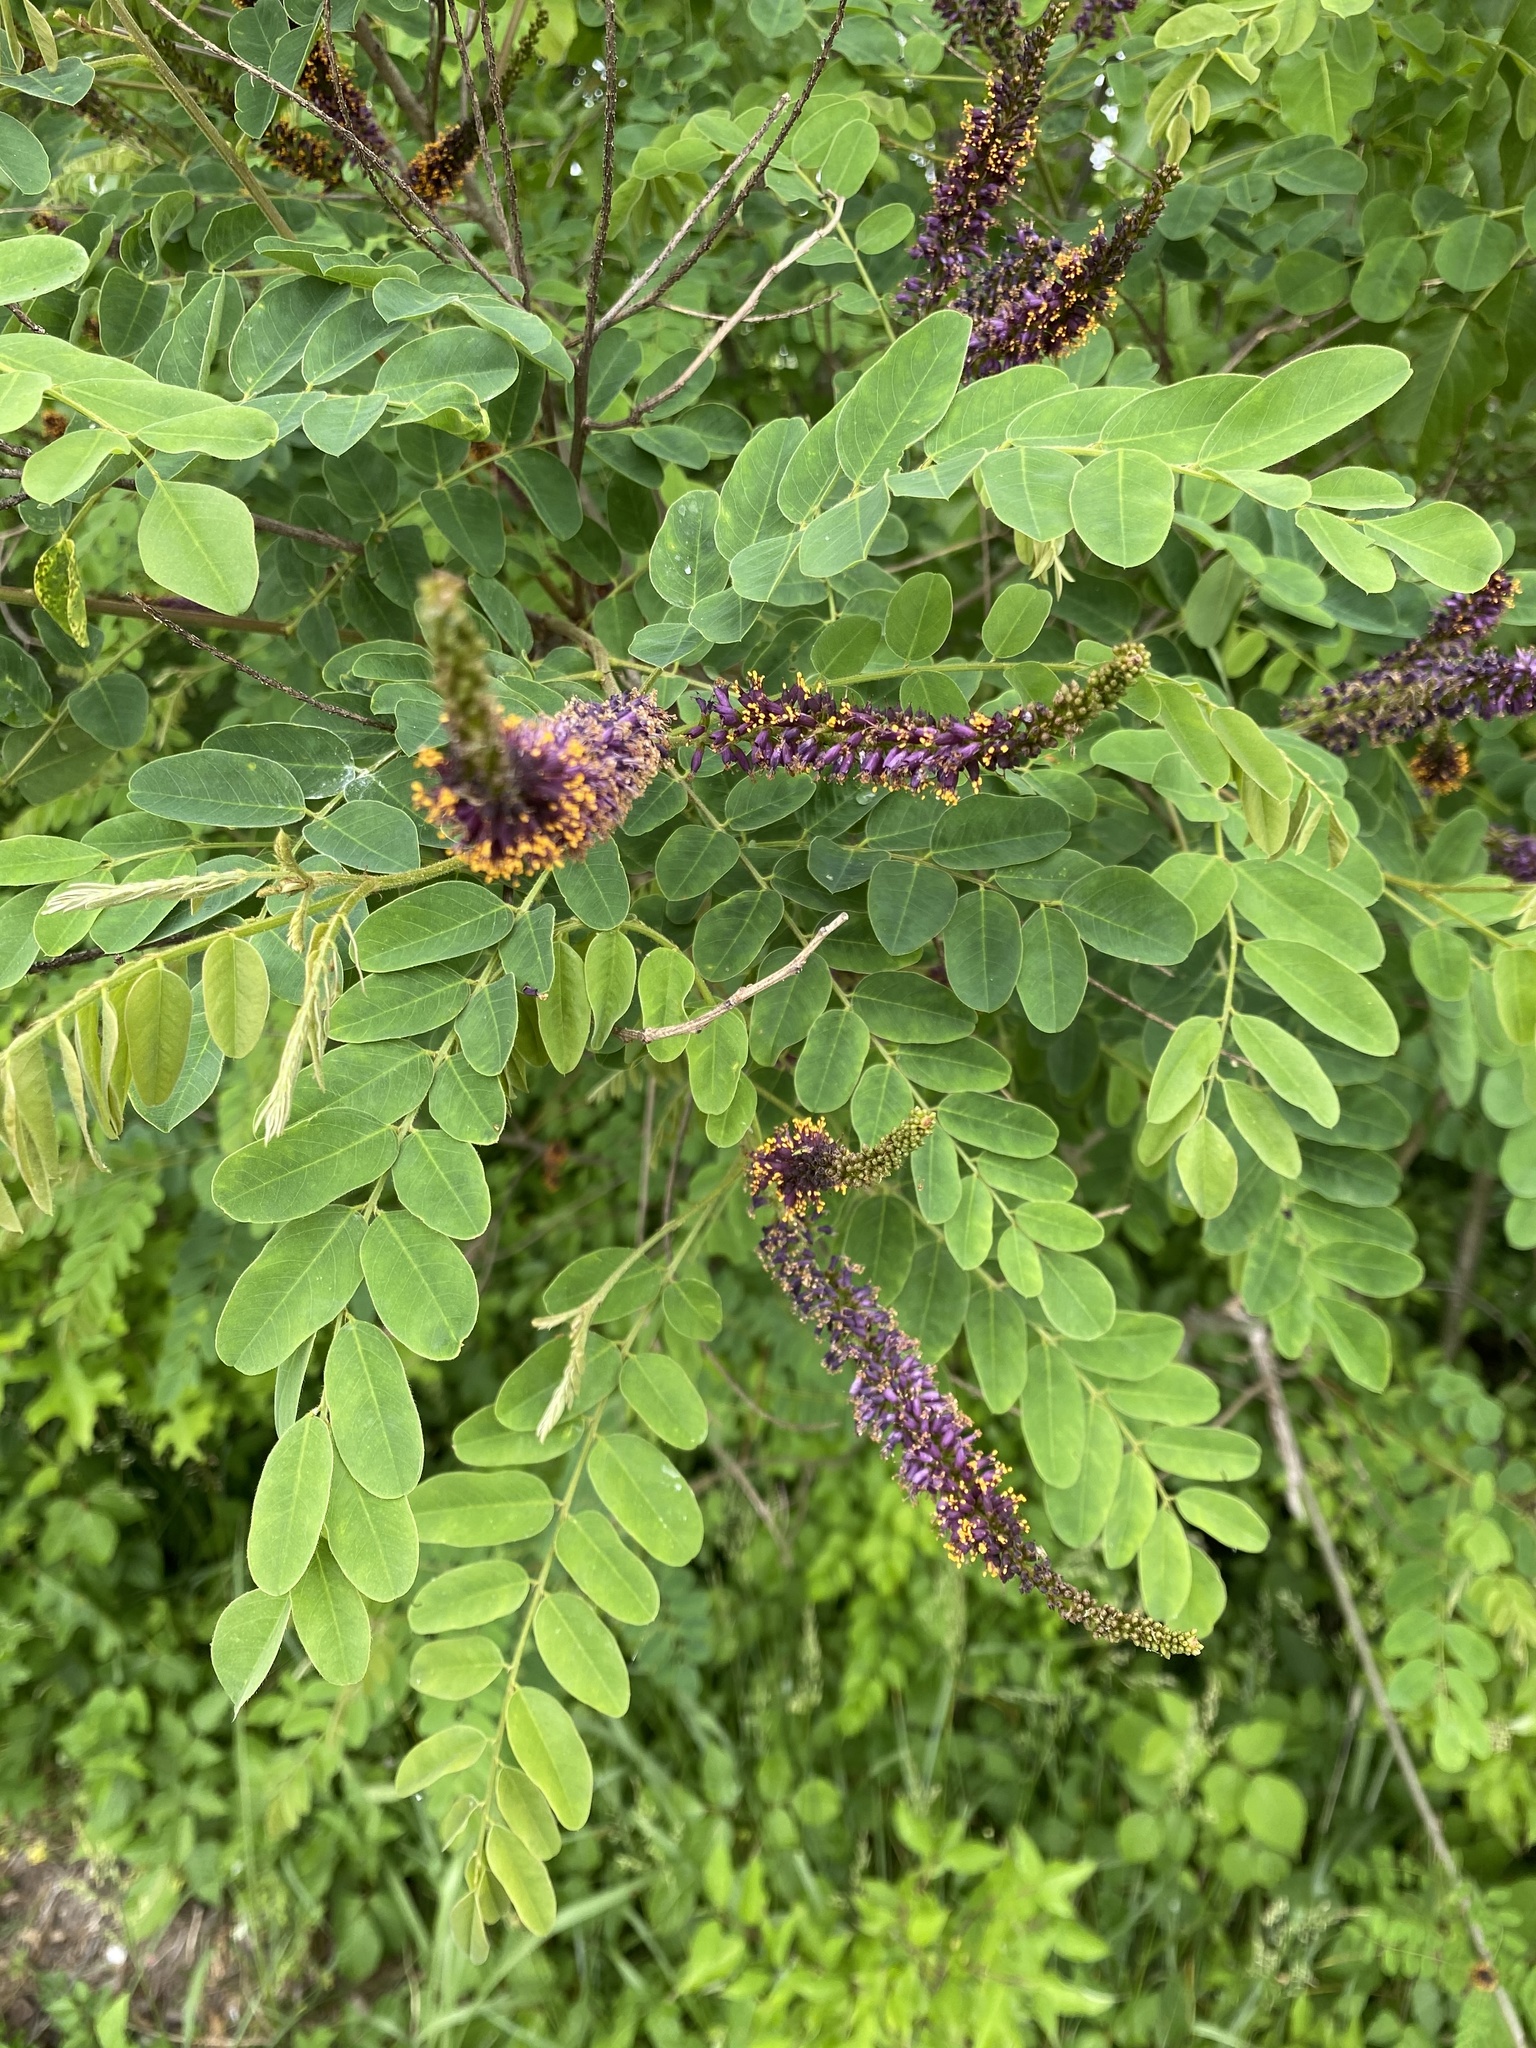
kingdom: Plantae
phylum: Tracheophyta
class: Magnoliopsida
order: Fabales
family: Fabaceae
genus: Amorpha
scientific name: Amorpha fruticosa
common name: False indigo
